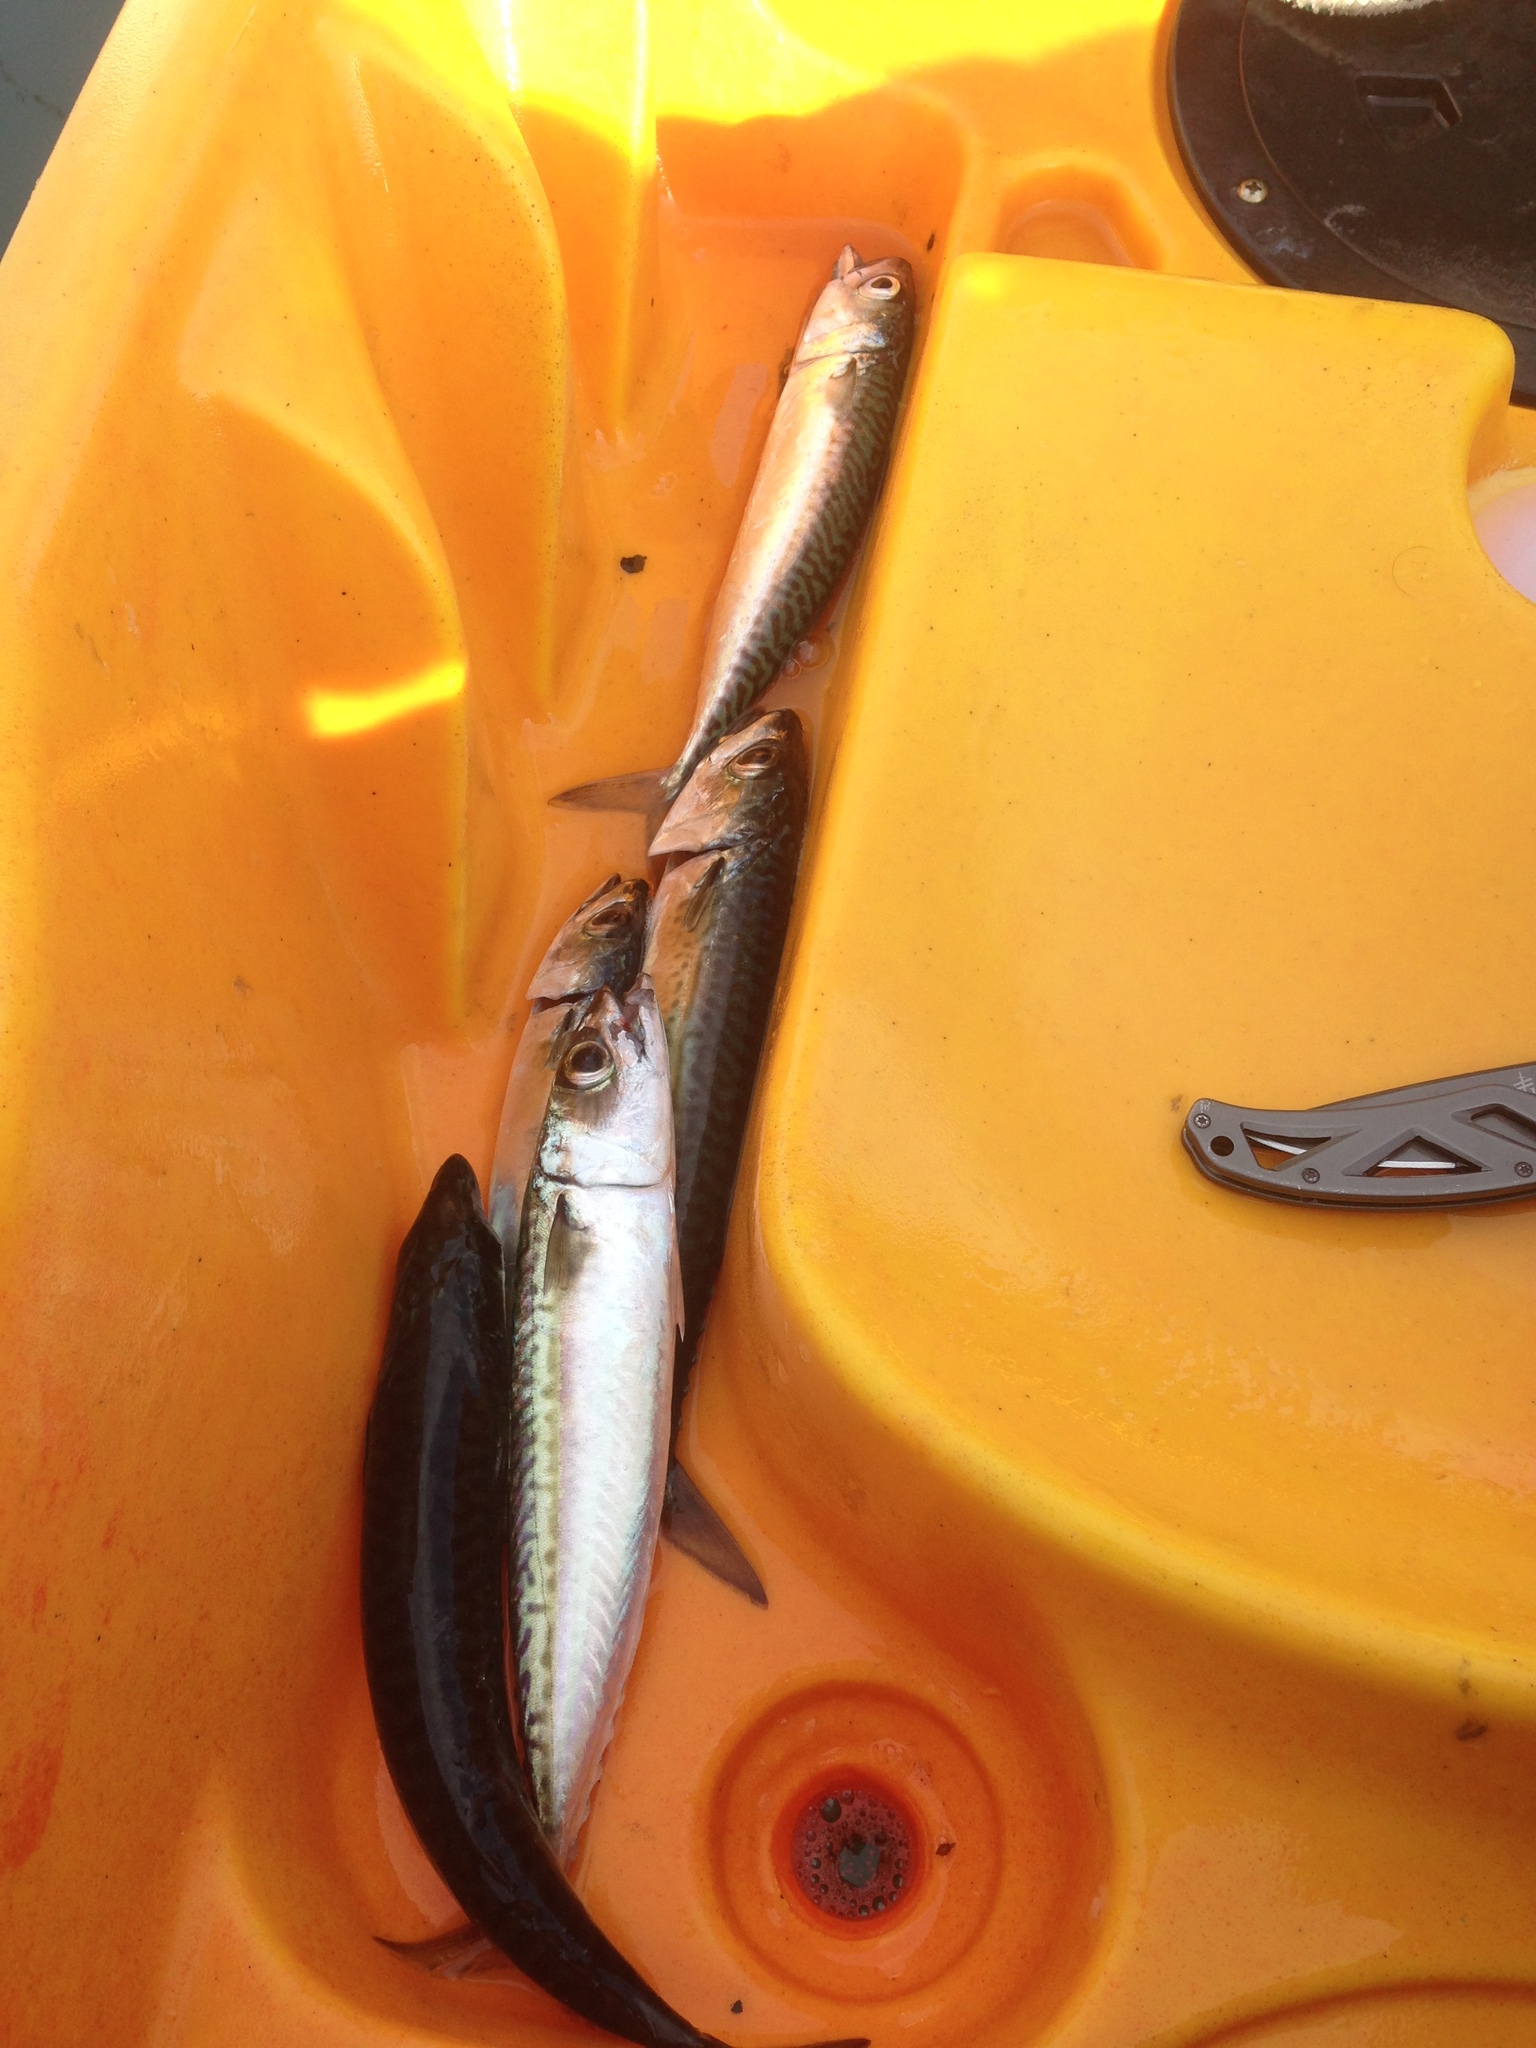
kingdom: Animalia
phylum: Chordata
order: Perciformes
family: Scombridae
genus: Scomber
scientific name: Scomber japonicus
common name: Chub mackerel
